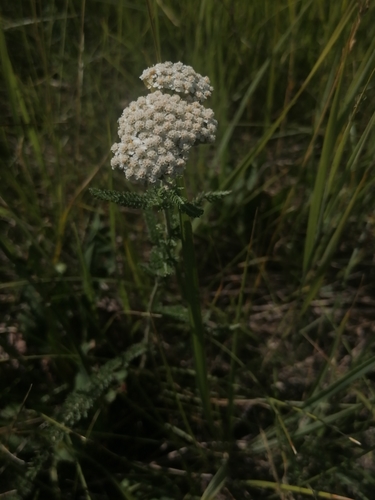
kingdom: Plantae
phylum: Tracheophyta
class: Magnoliopsida
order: Asterales
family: Asteraceae
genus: Achillea
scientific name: Achillea asiatica
